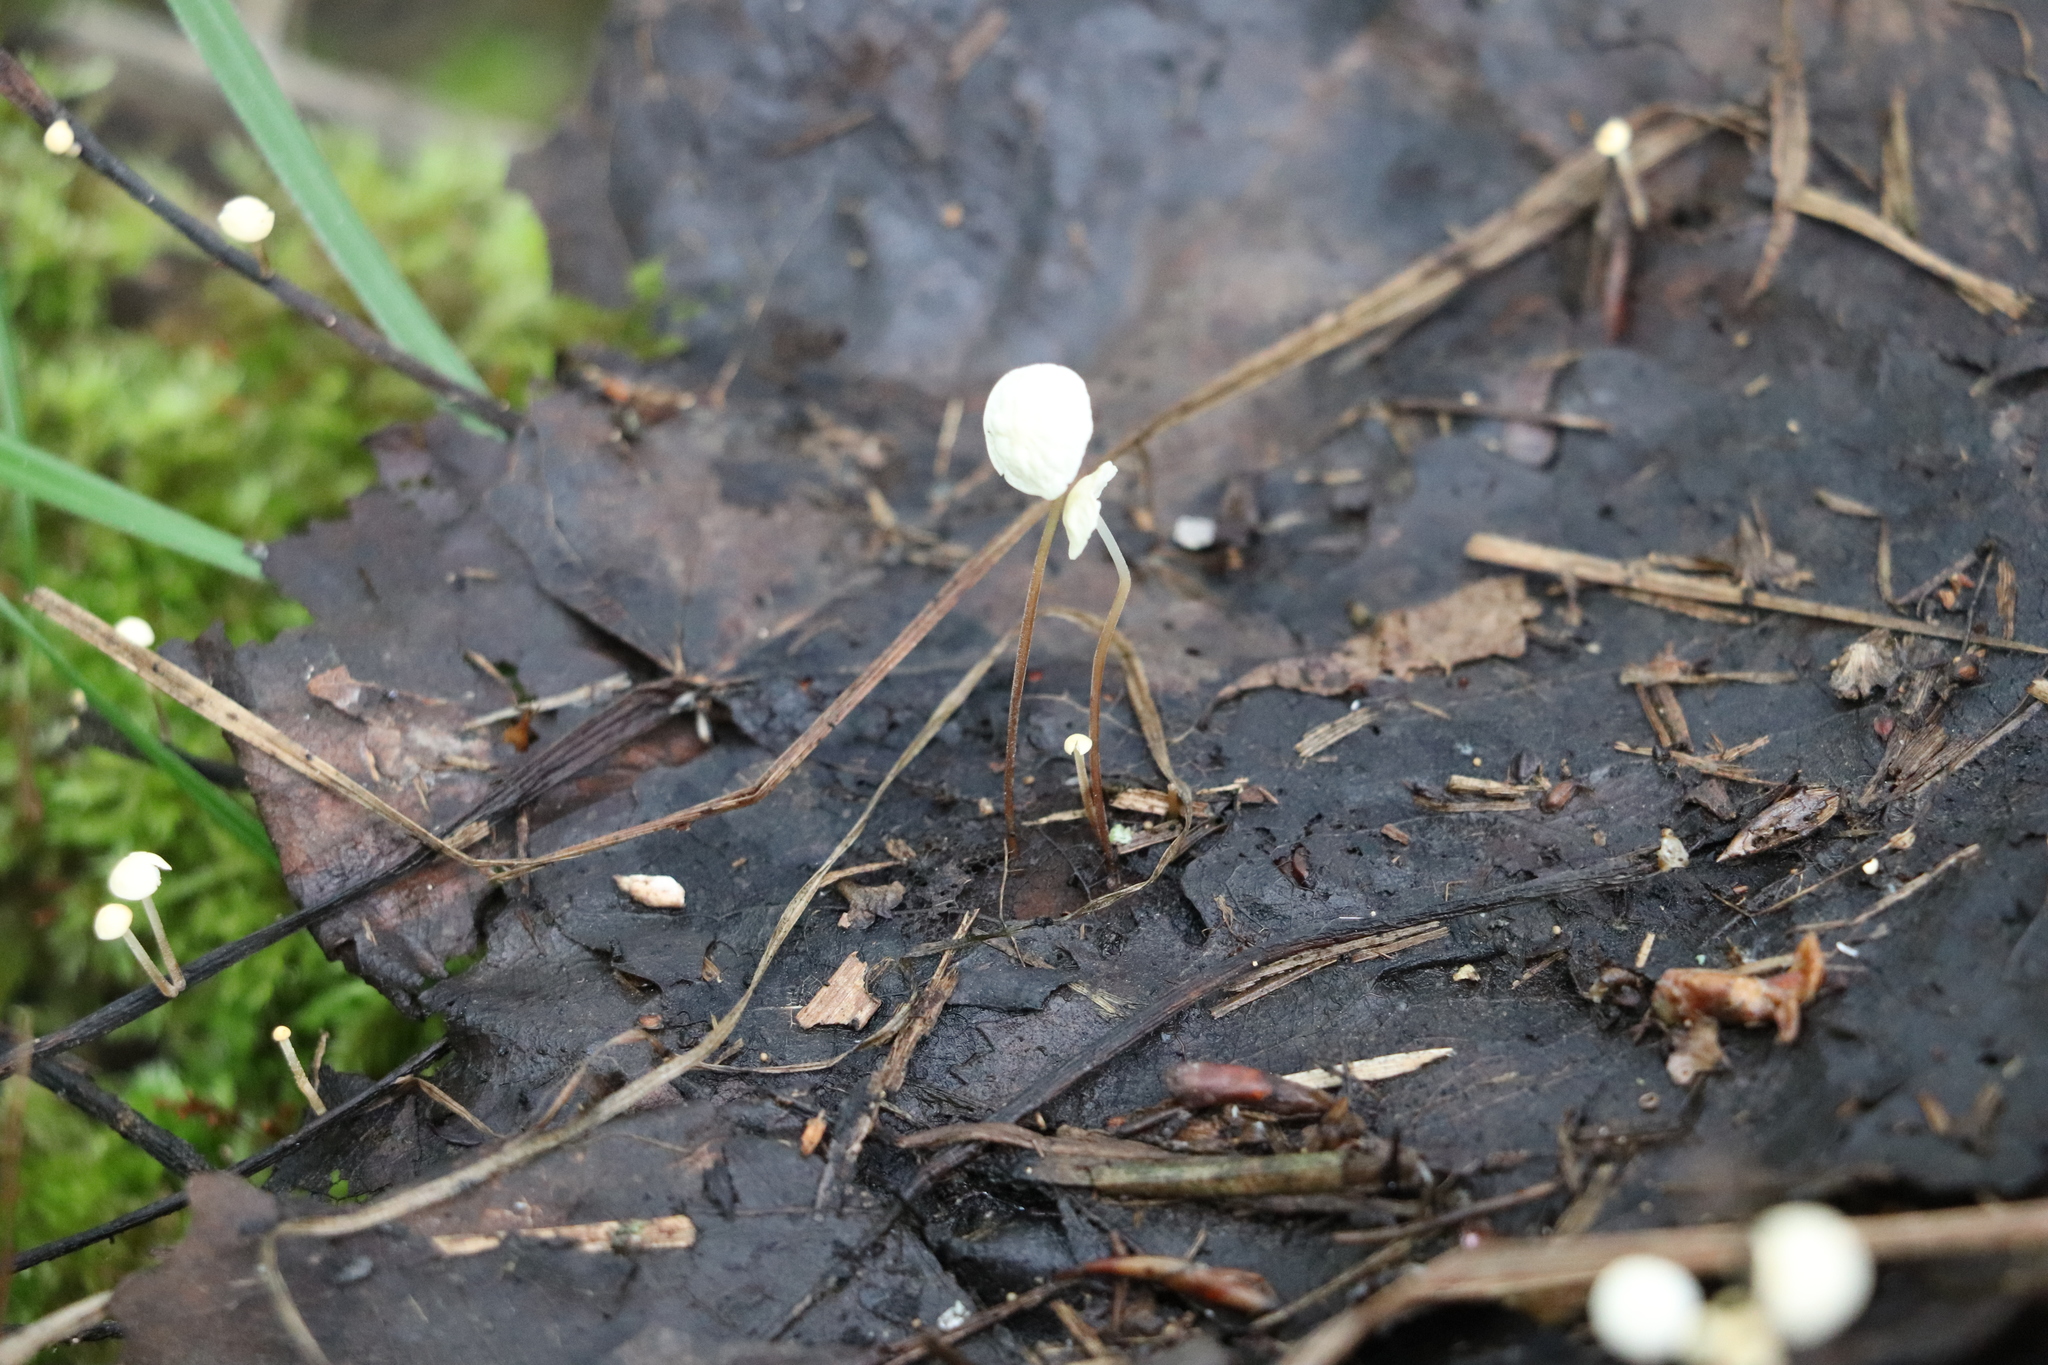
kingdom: Fungi
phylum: Basidiomycota
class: Agaricomycetes
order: Agaricales
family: Physalacriaceae
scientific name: Physalacriaceae
